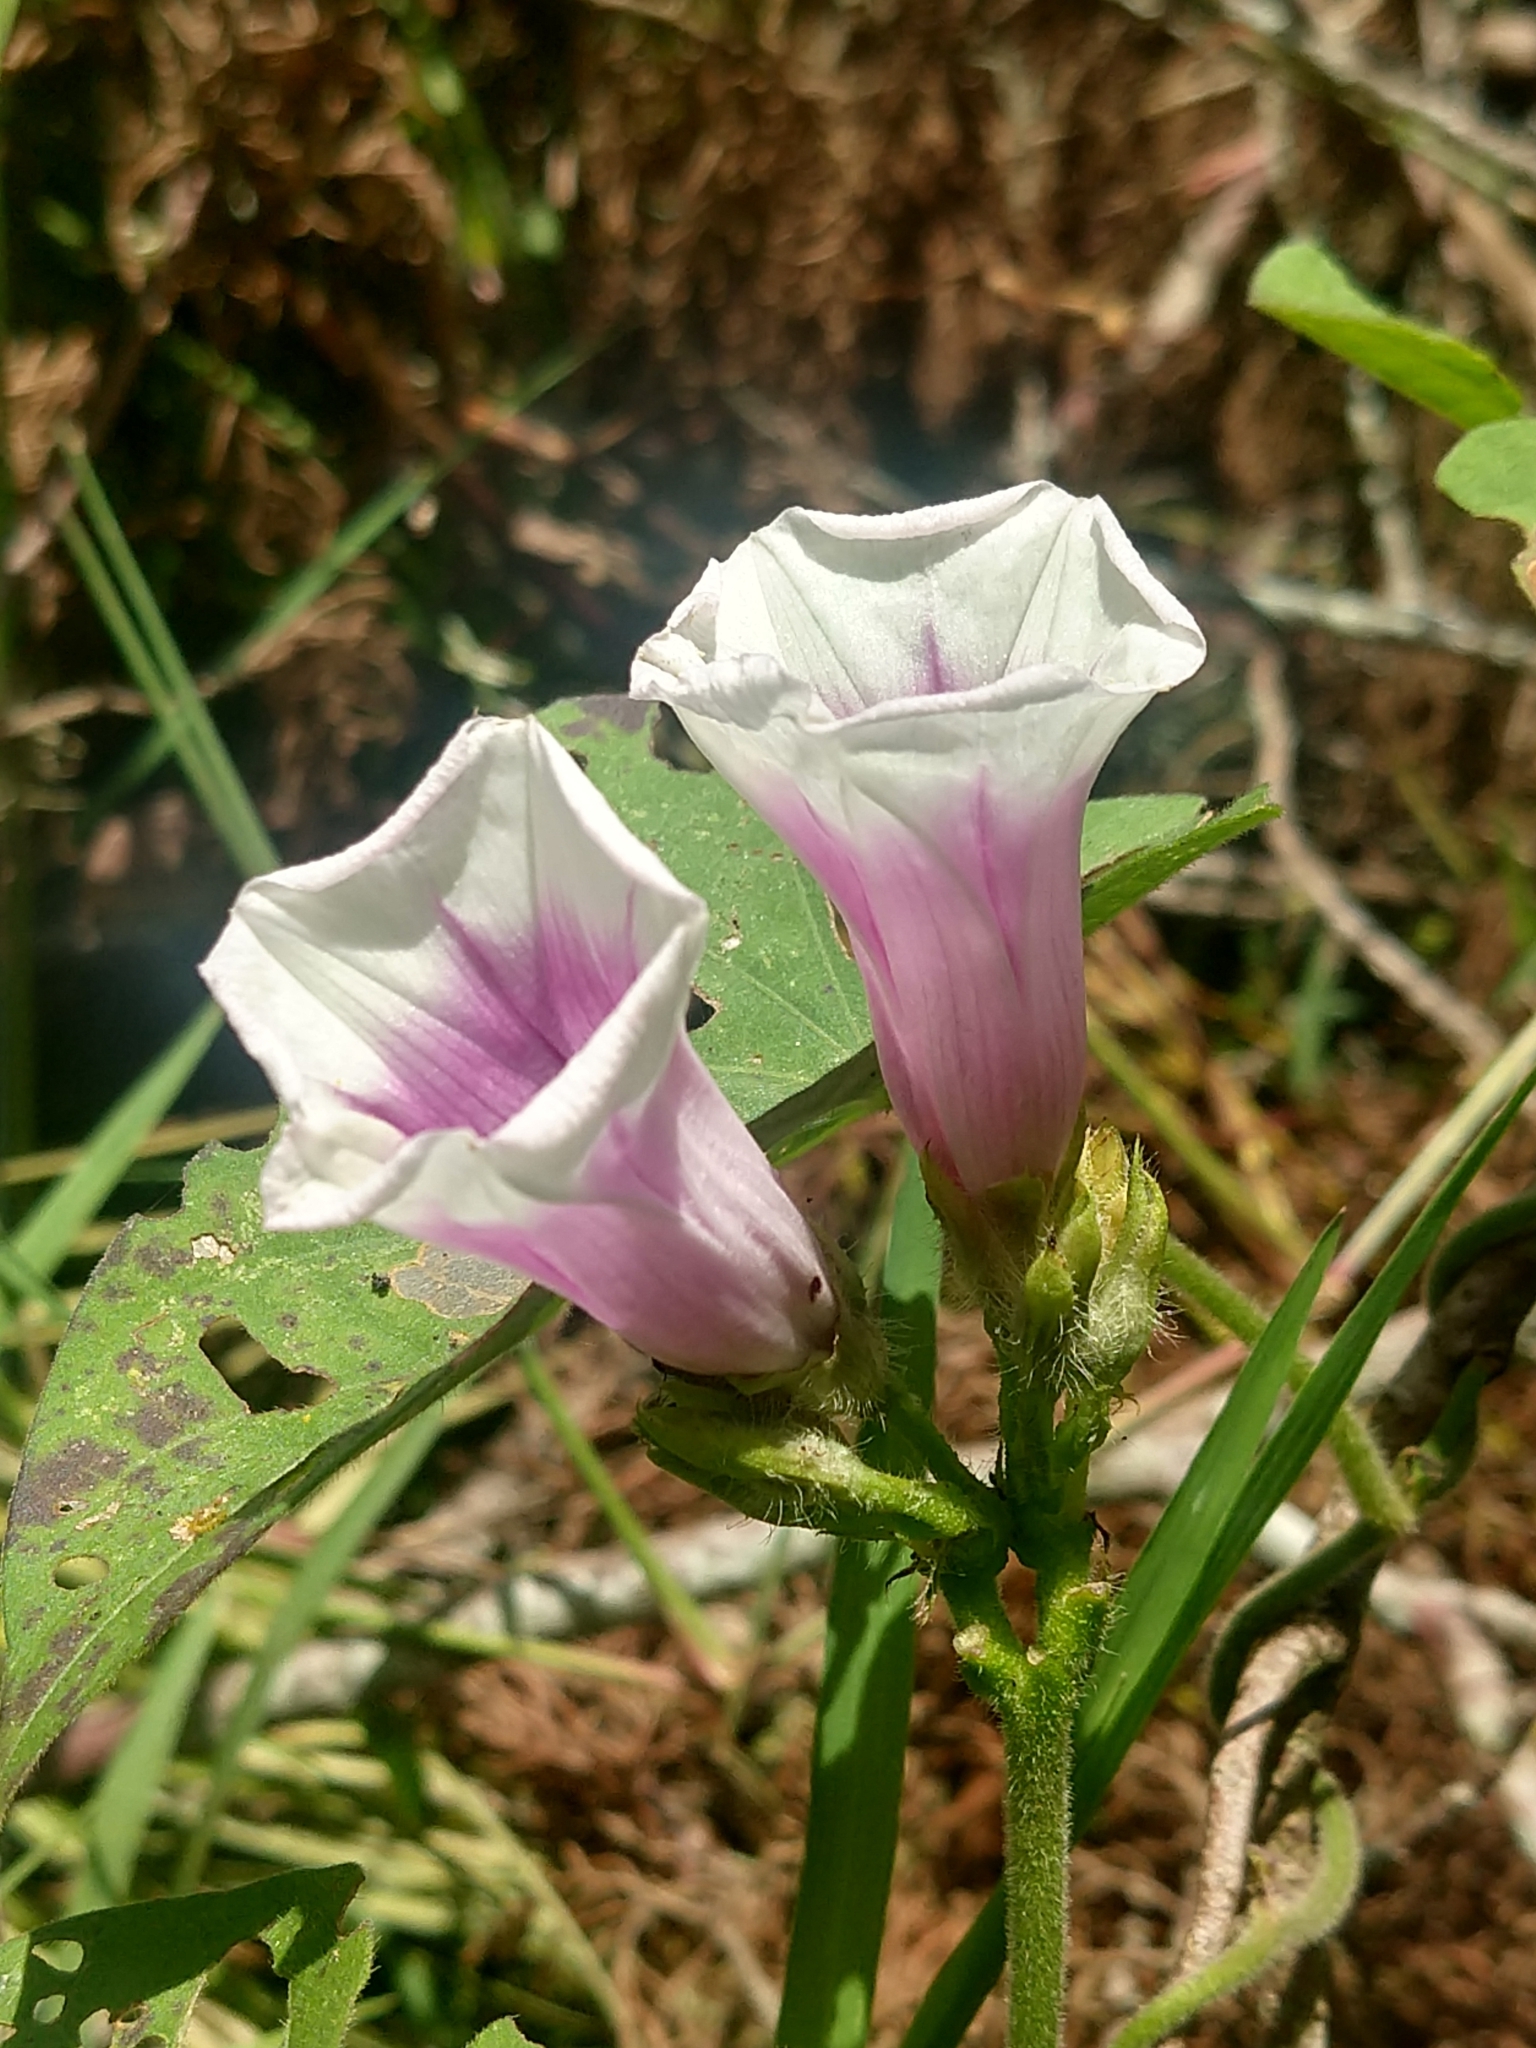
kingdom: Plantae
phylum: Tracheophyta
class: Magnoliopsida
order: Solanales
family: Convolvulaceae
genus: Ipomoea
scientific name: Ipomoea batatas
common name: Sweet-potato
